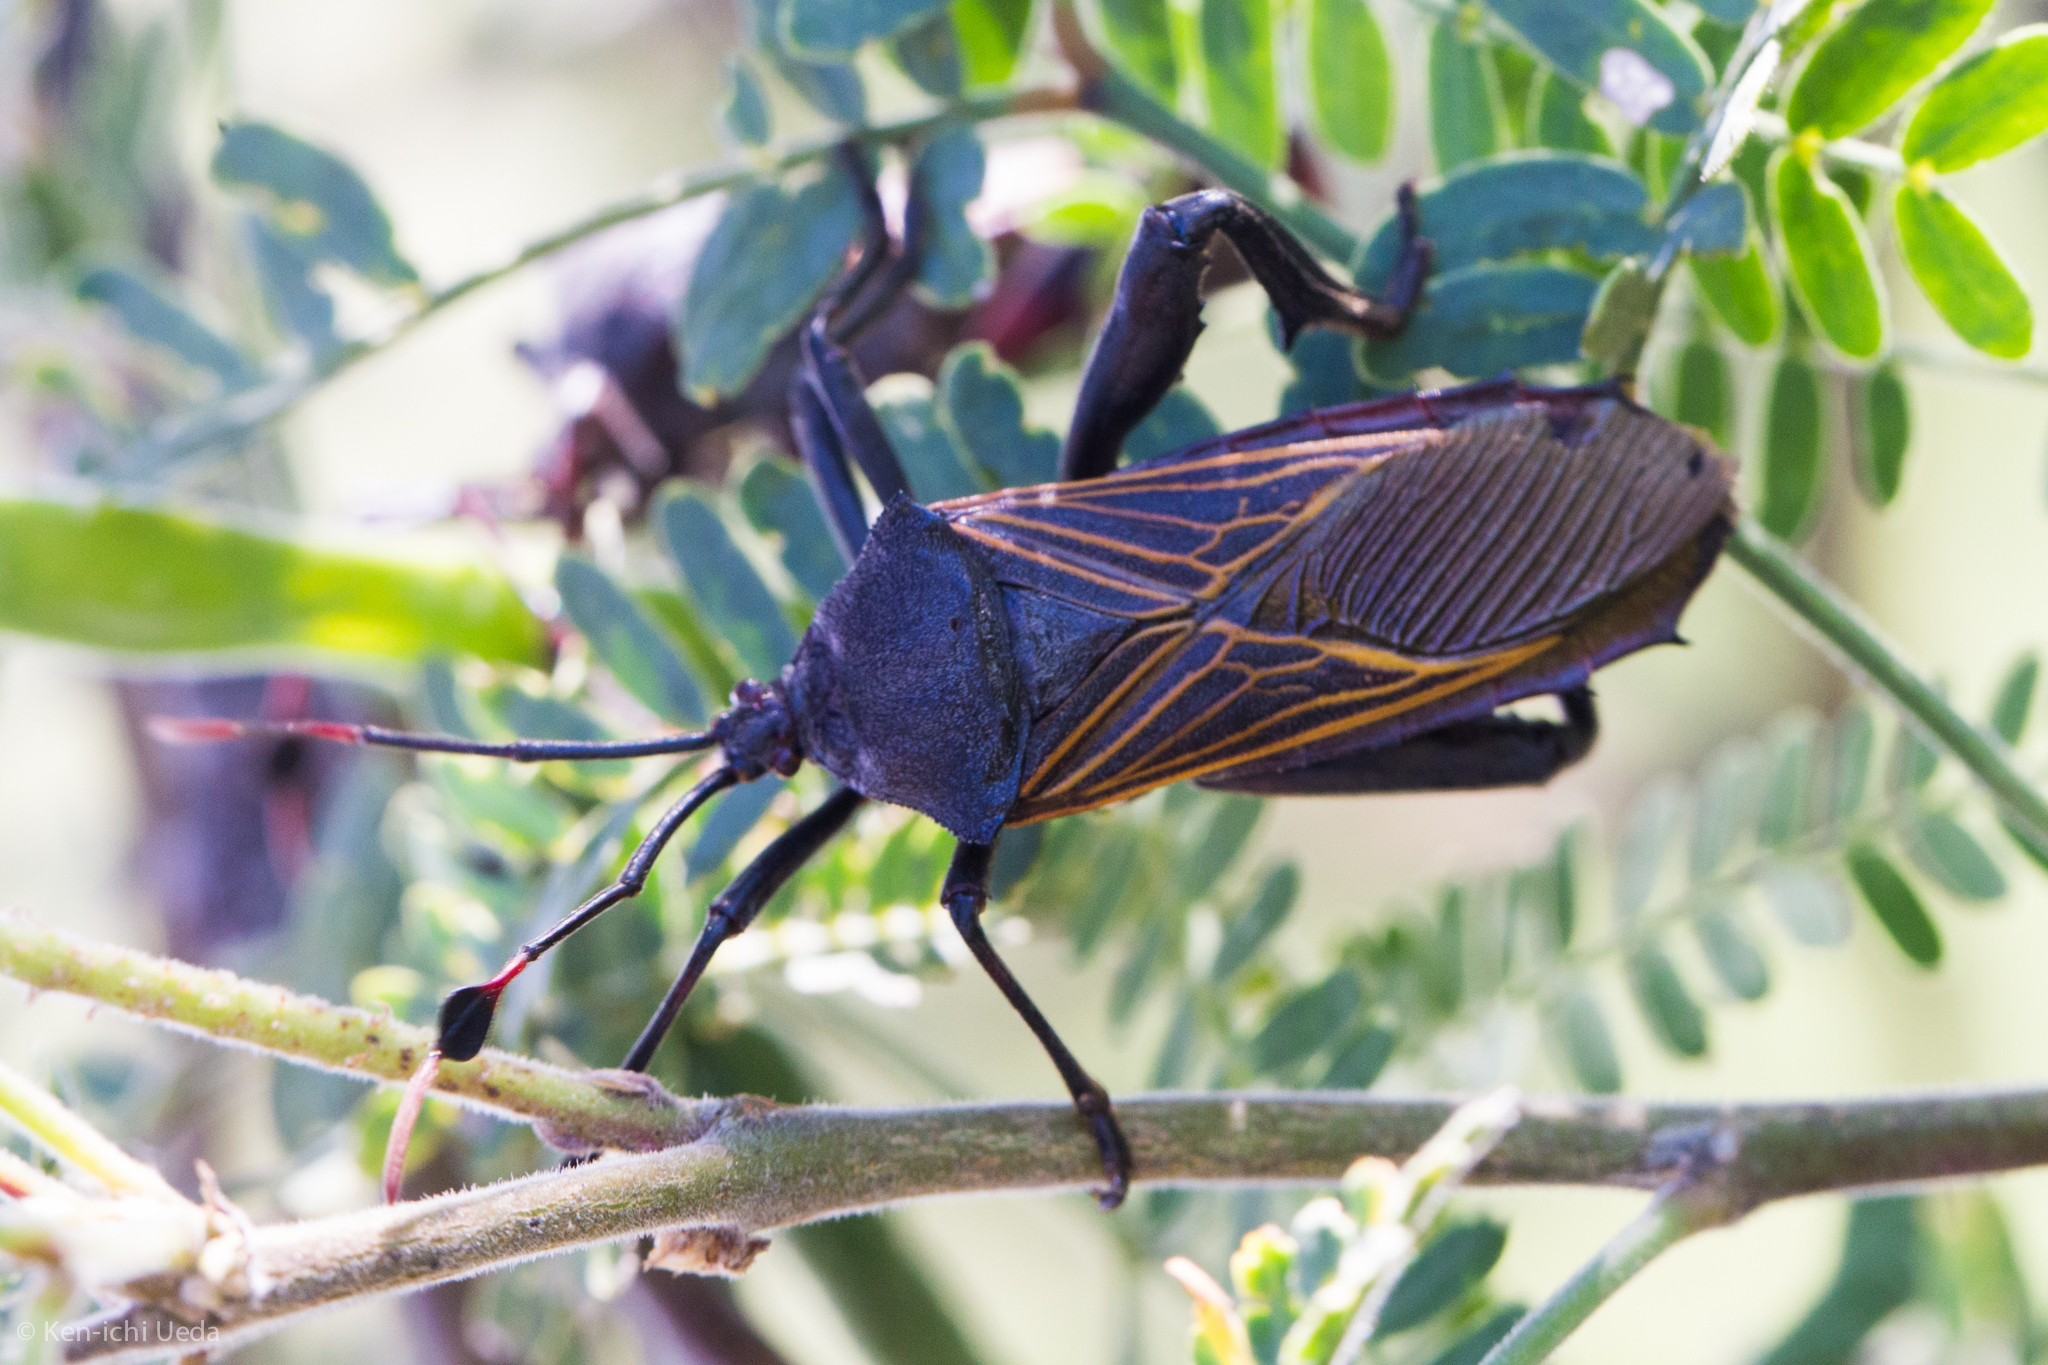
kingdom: Animalia
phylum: Arthropoda
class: Insecta
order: Hemiptera
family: Coreidae
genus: Thasus
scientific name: Thasus neocalifornicus
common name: Giant mesquite bug
